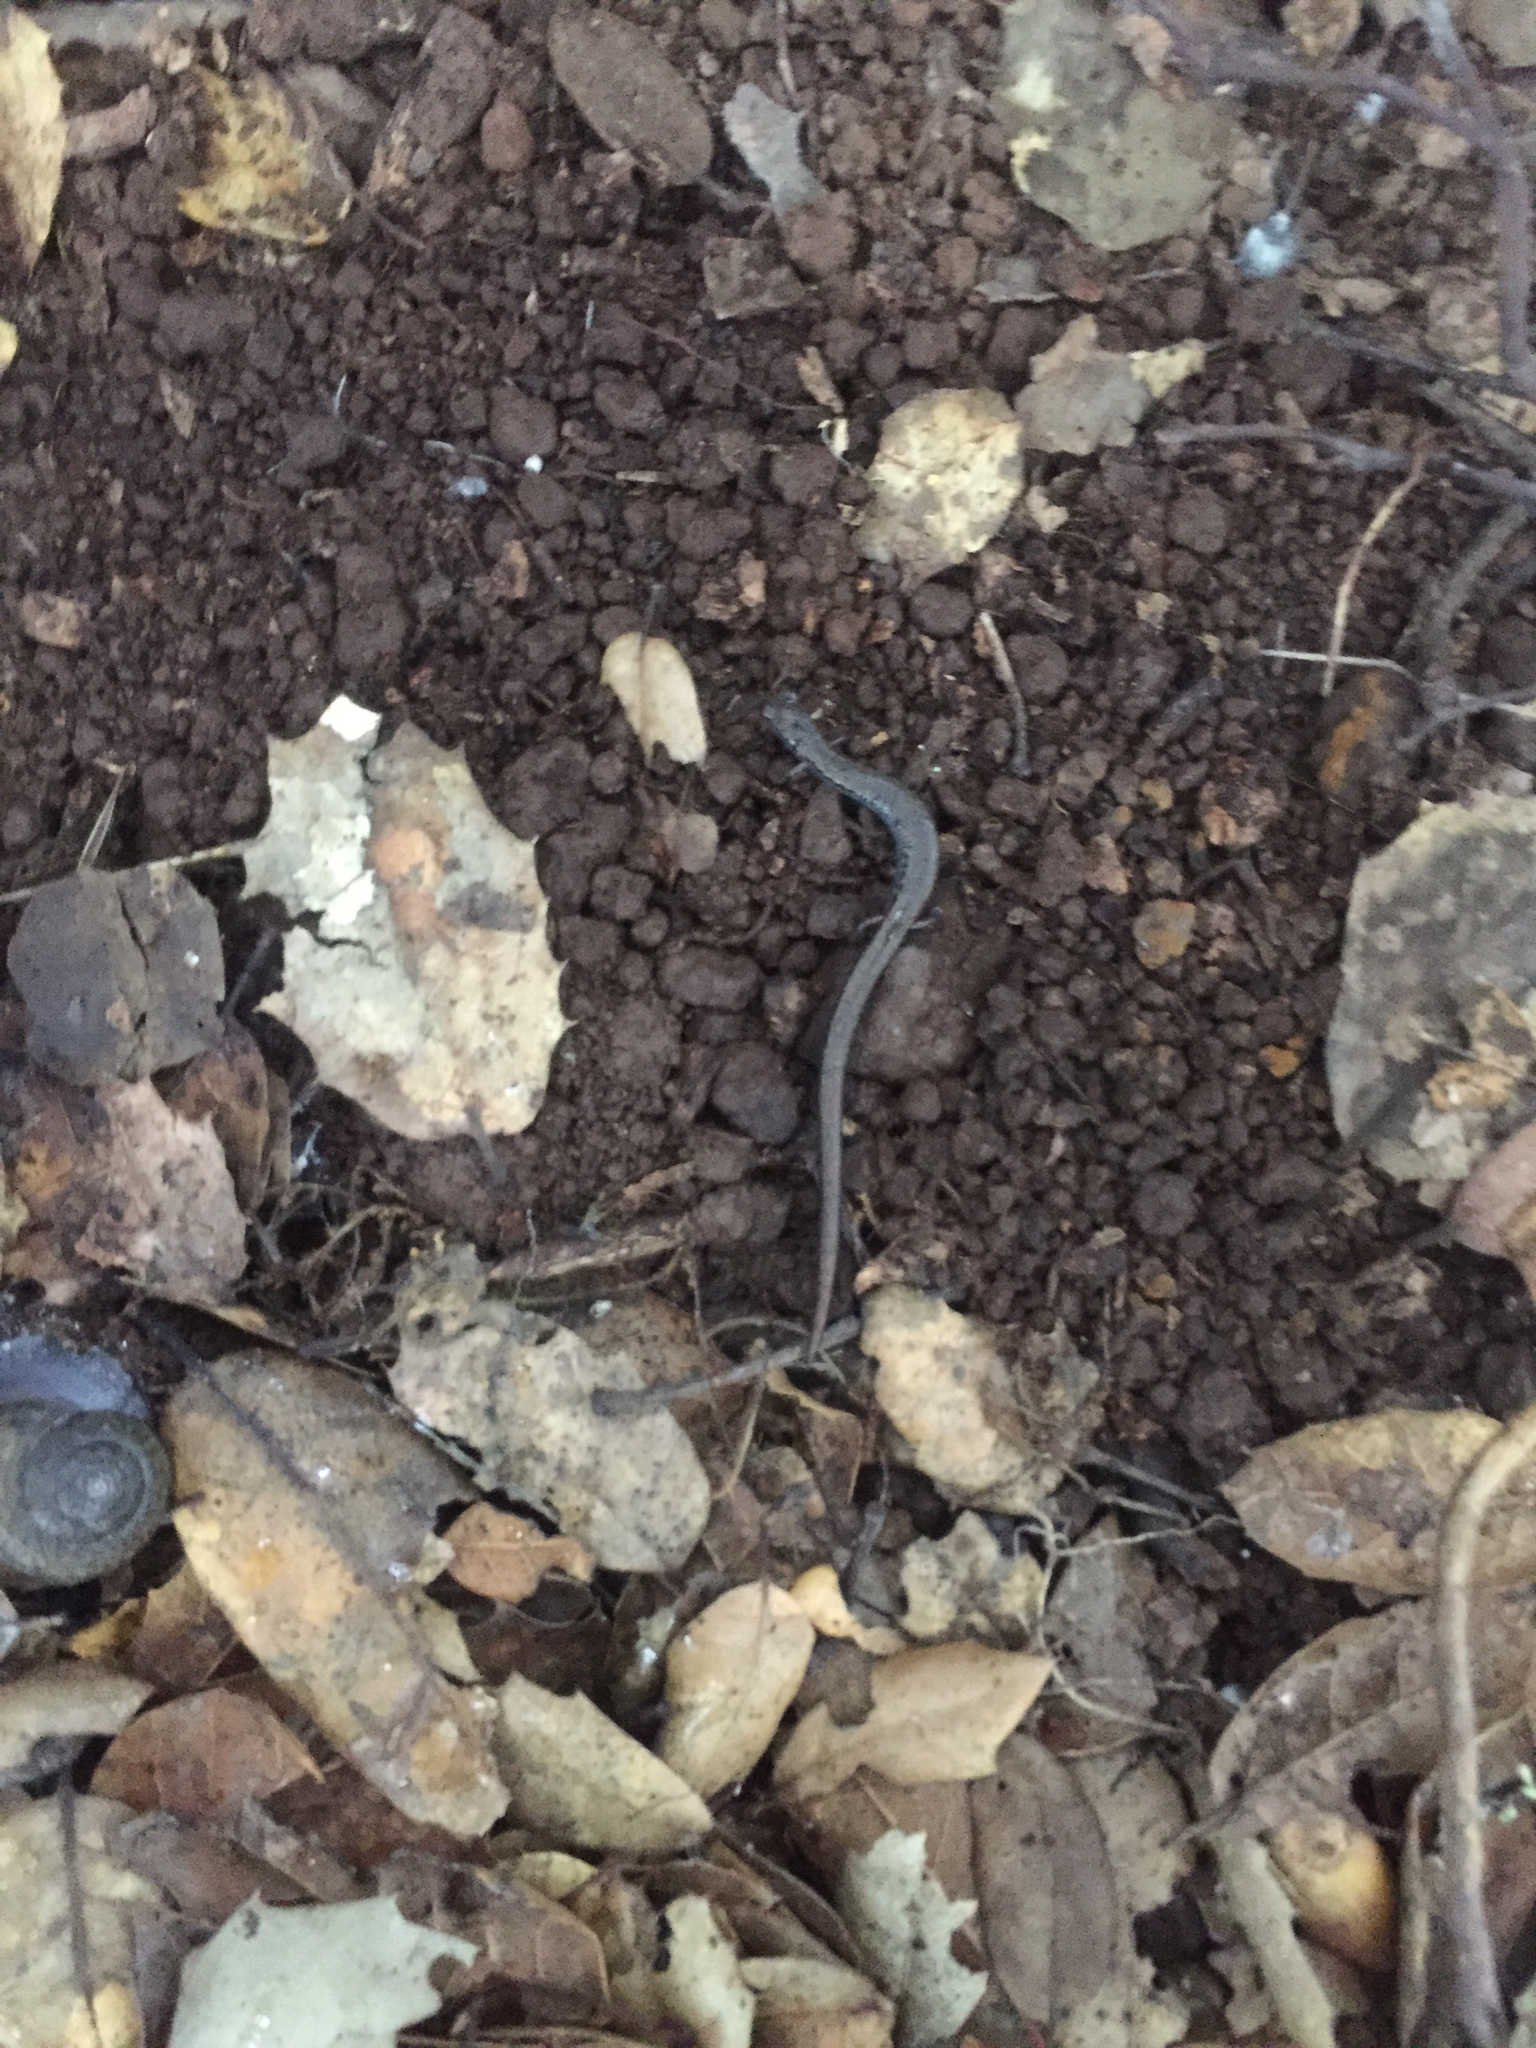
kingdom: Animalia
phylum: Chordata
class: Amphibia
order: Caudata
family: Plethodontidae
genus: Batrachoseps
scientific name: Batrachoseps attenuatus
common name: California slender salamander
